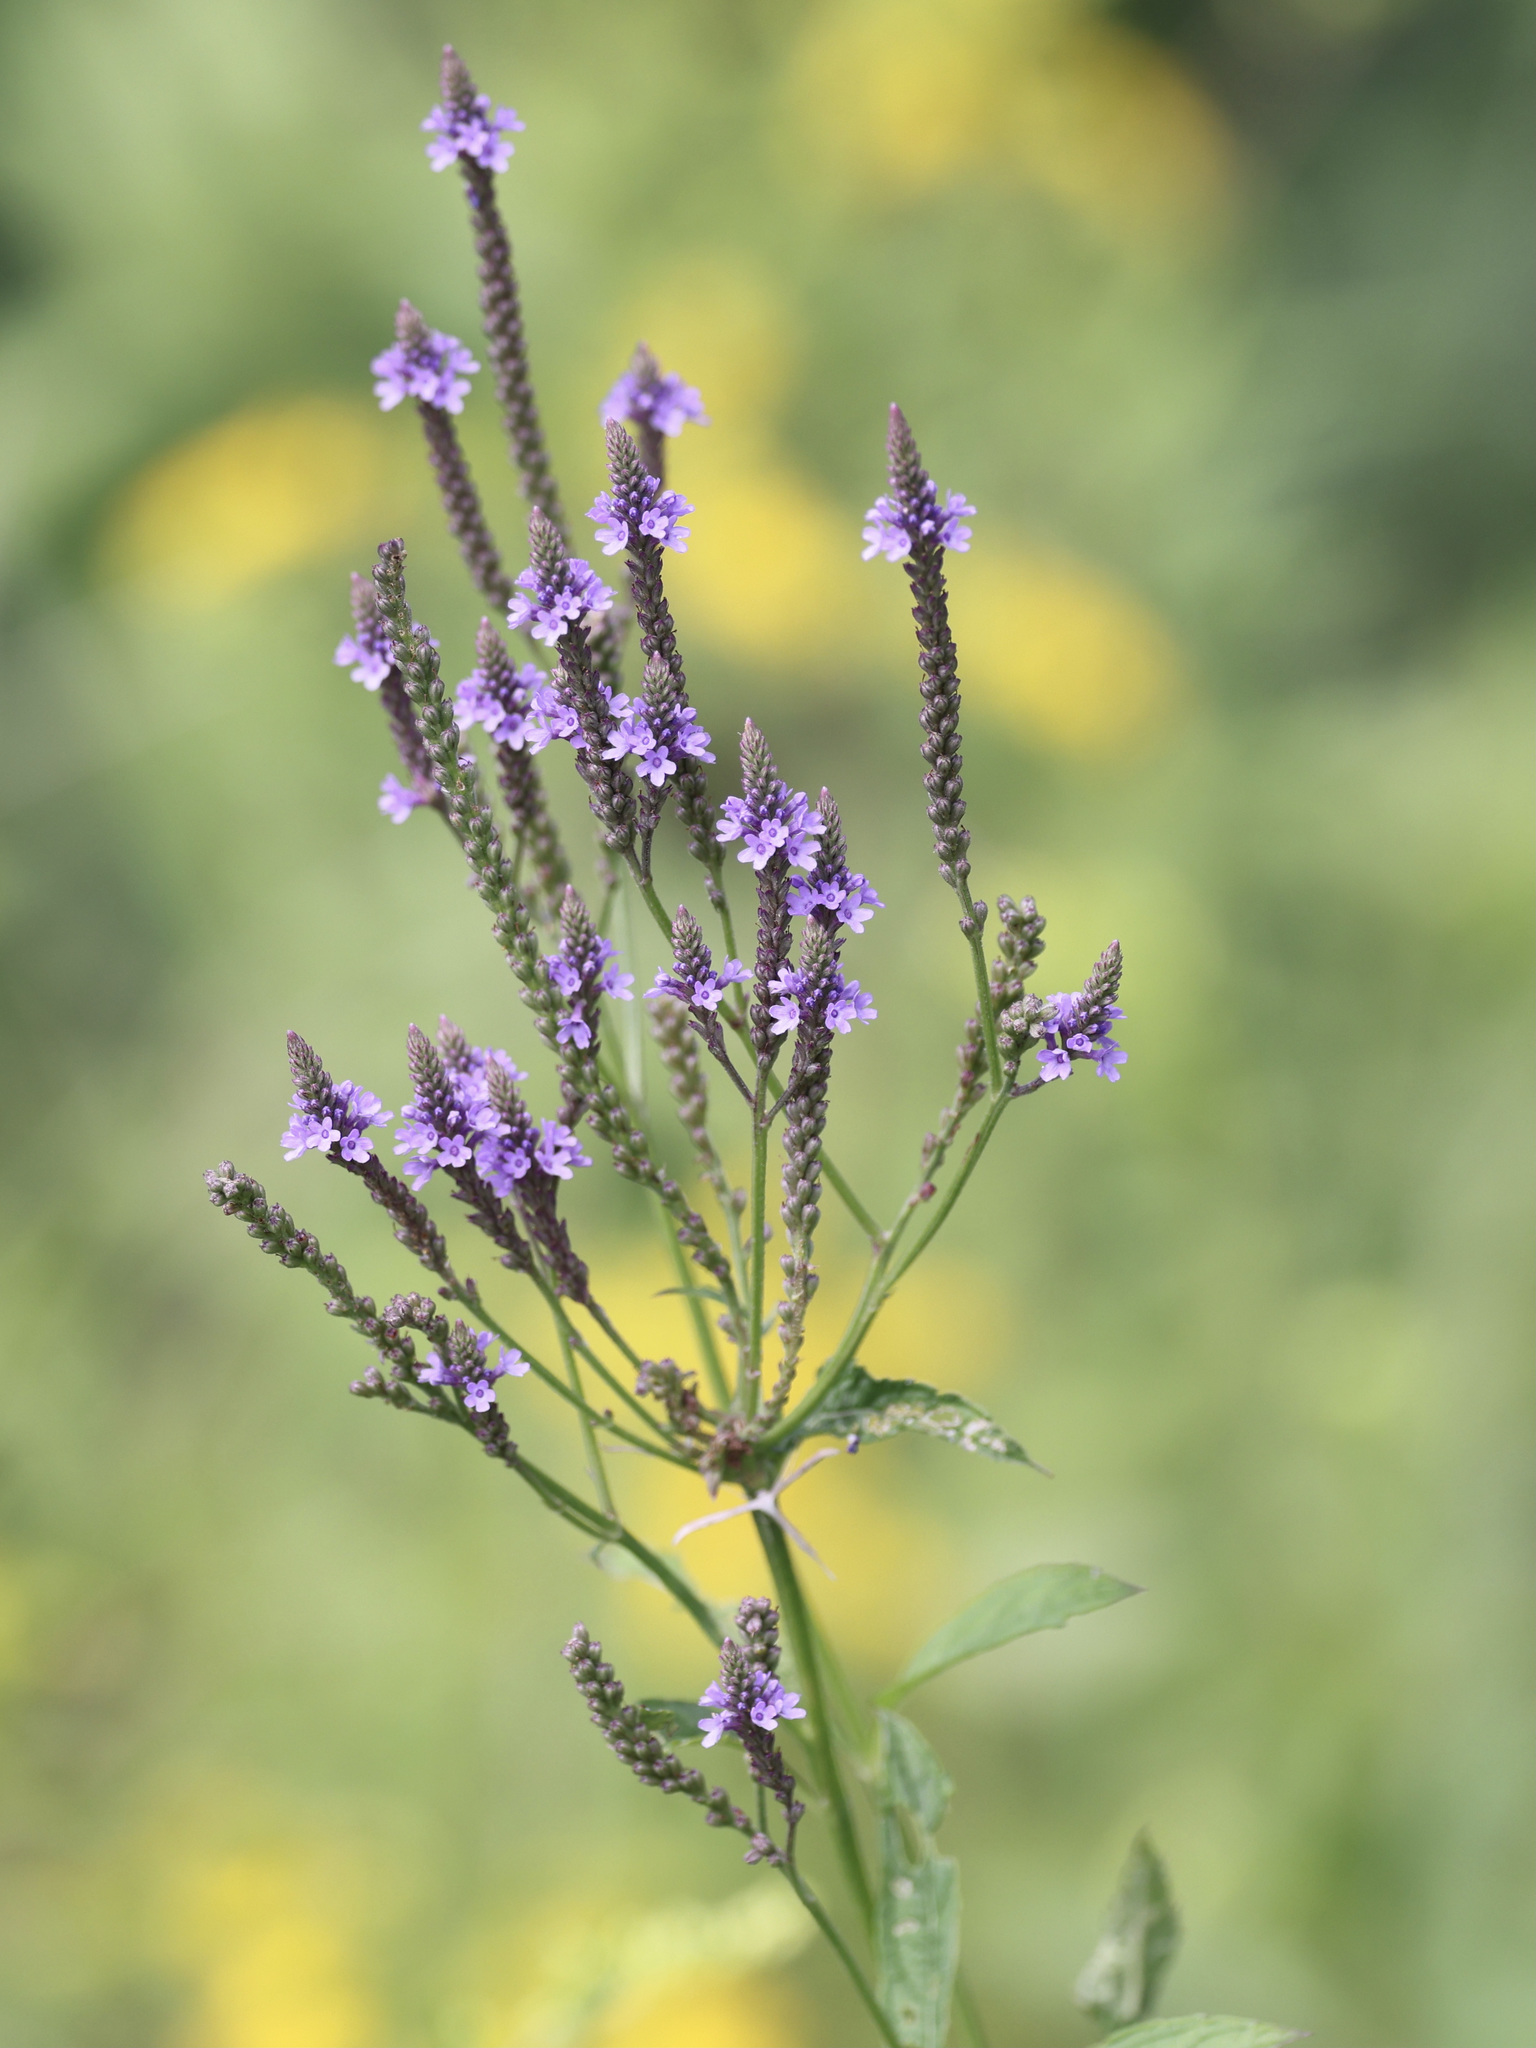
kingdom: Plantae
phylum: Tracheophyta
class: Magnoliopsida
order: Lamiales
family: Verbenaceae
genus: Verbena
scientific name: Verbena hastata
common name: American blue vervain
